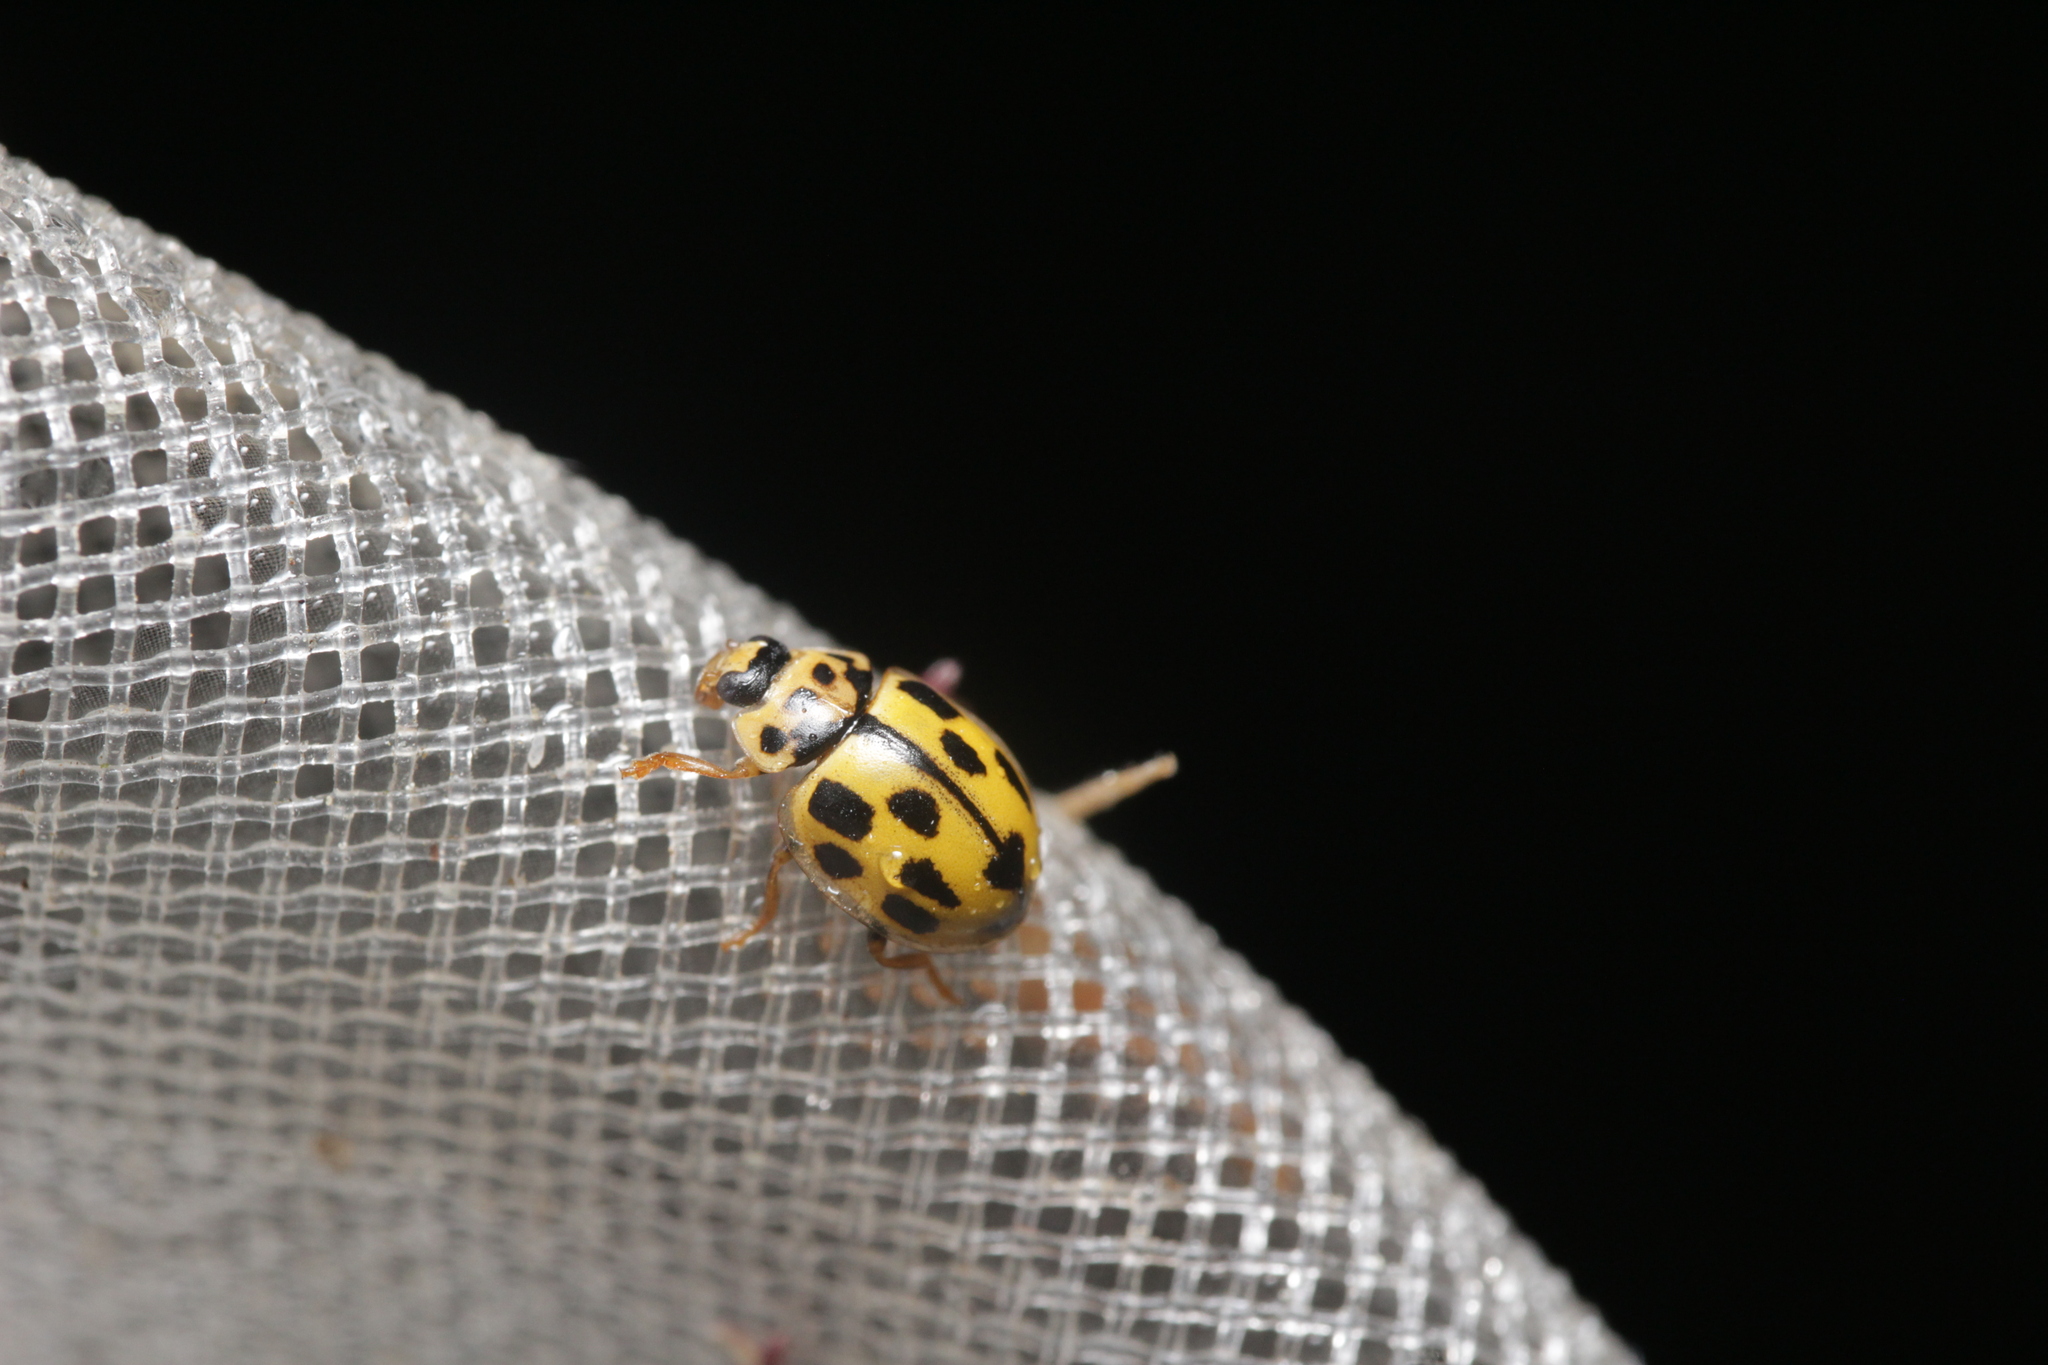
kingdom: Animalia
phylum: Arthropoda
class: Insecta
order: Coleoptera
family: Coccinellidae
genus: Propylaea
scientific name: Propylaea quatuordecimpunctata
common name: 14-spotted ladybird beetle
